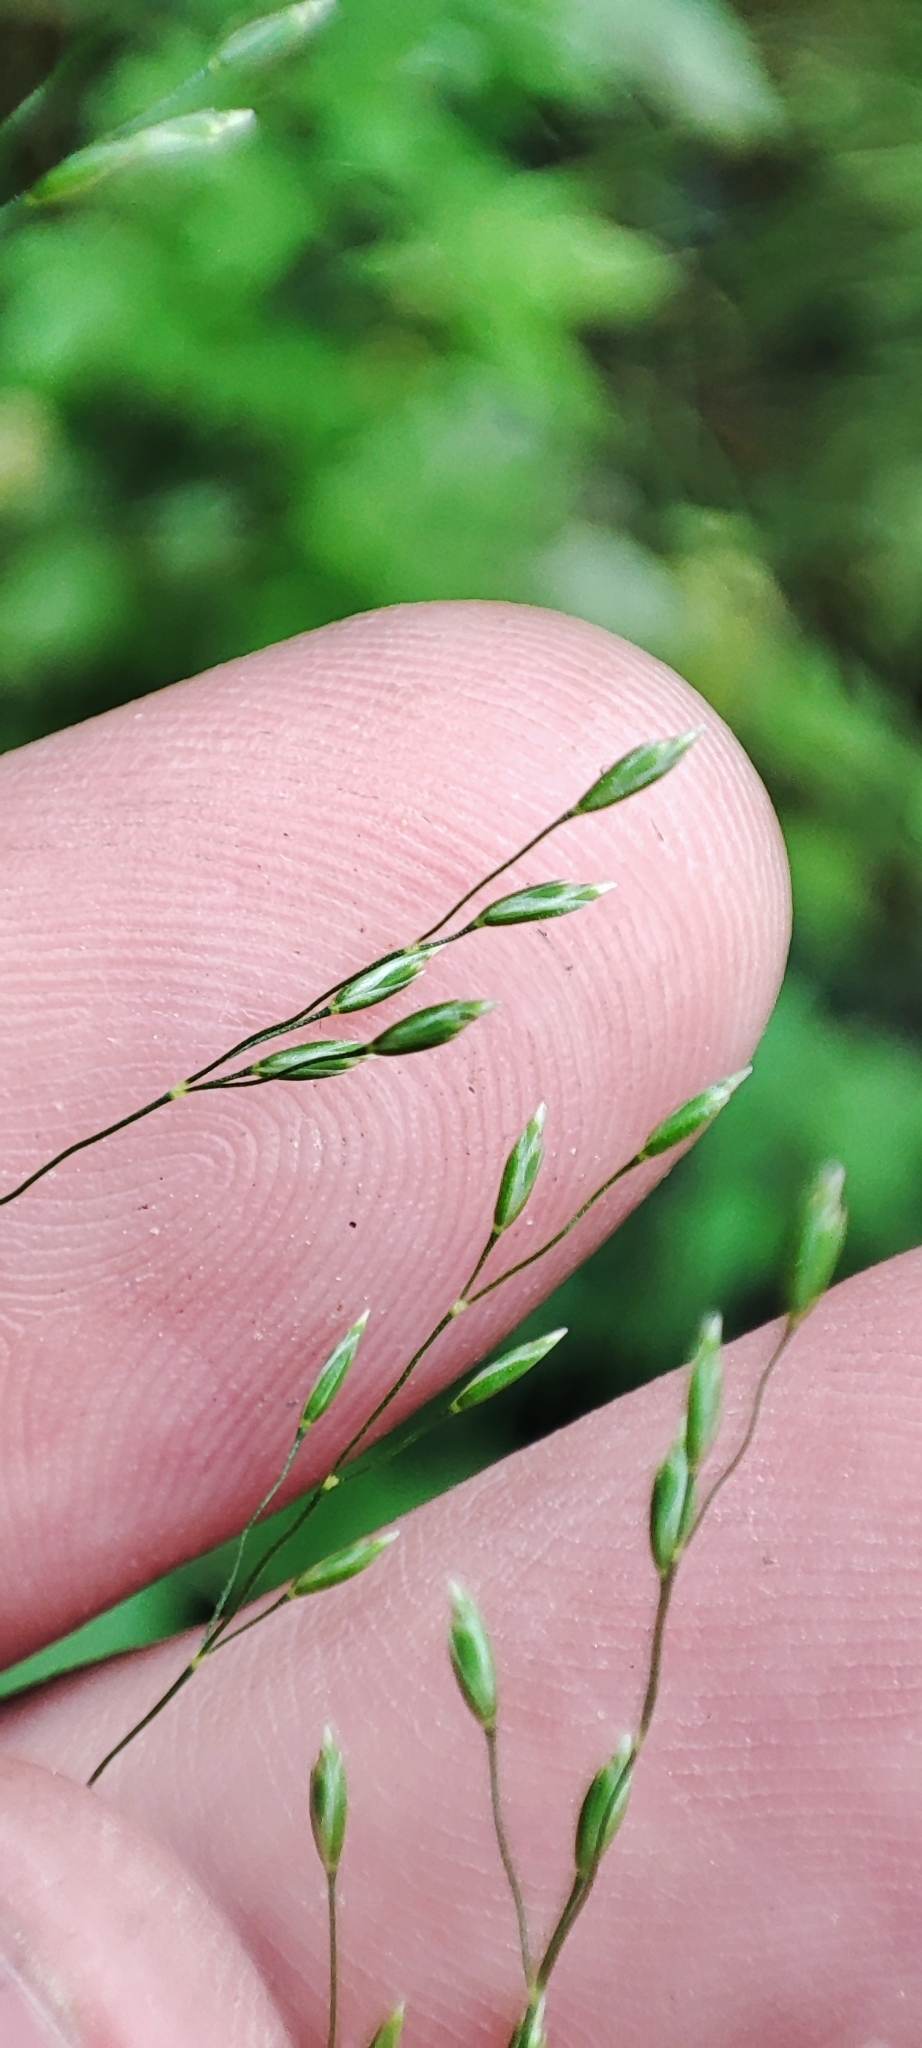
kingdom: Plantae
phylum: Tracheophyta
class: Liliopsida
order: Poales
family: Poaceae
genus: Poa
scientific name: Poa palustris
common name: Swamp meadow-grass
